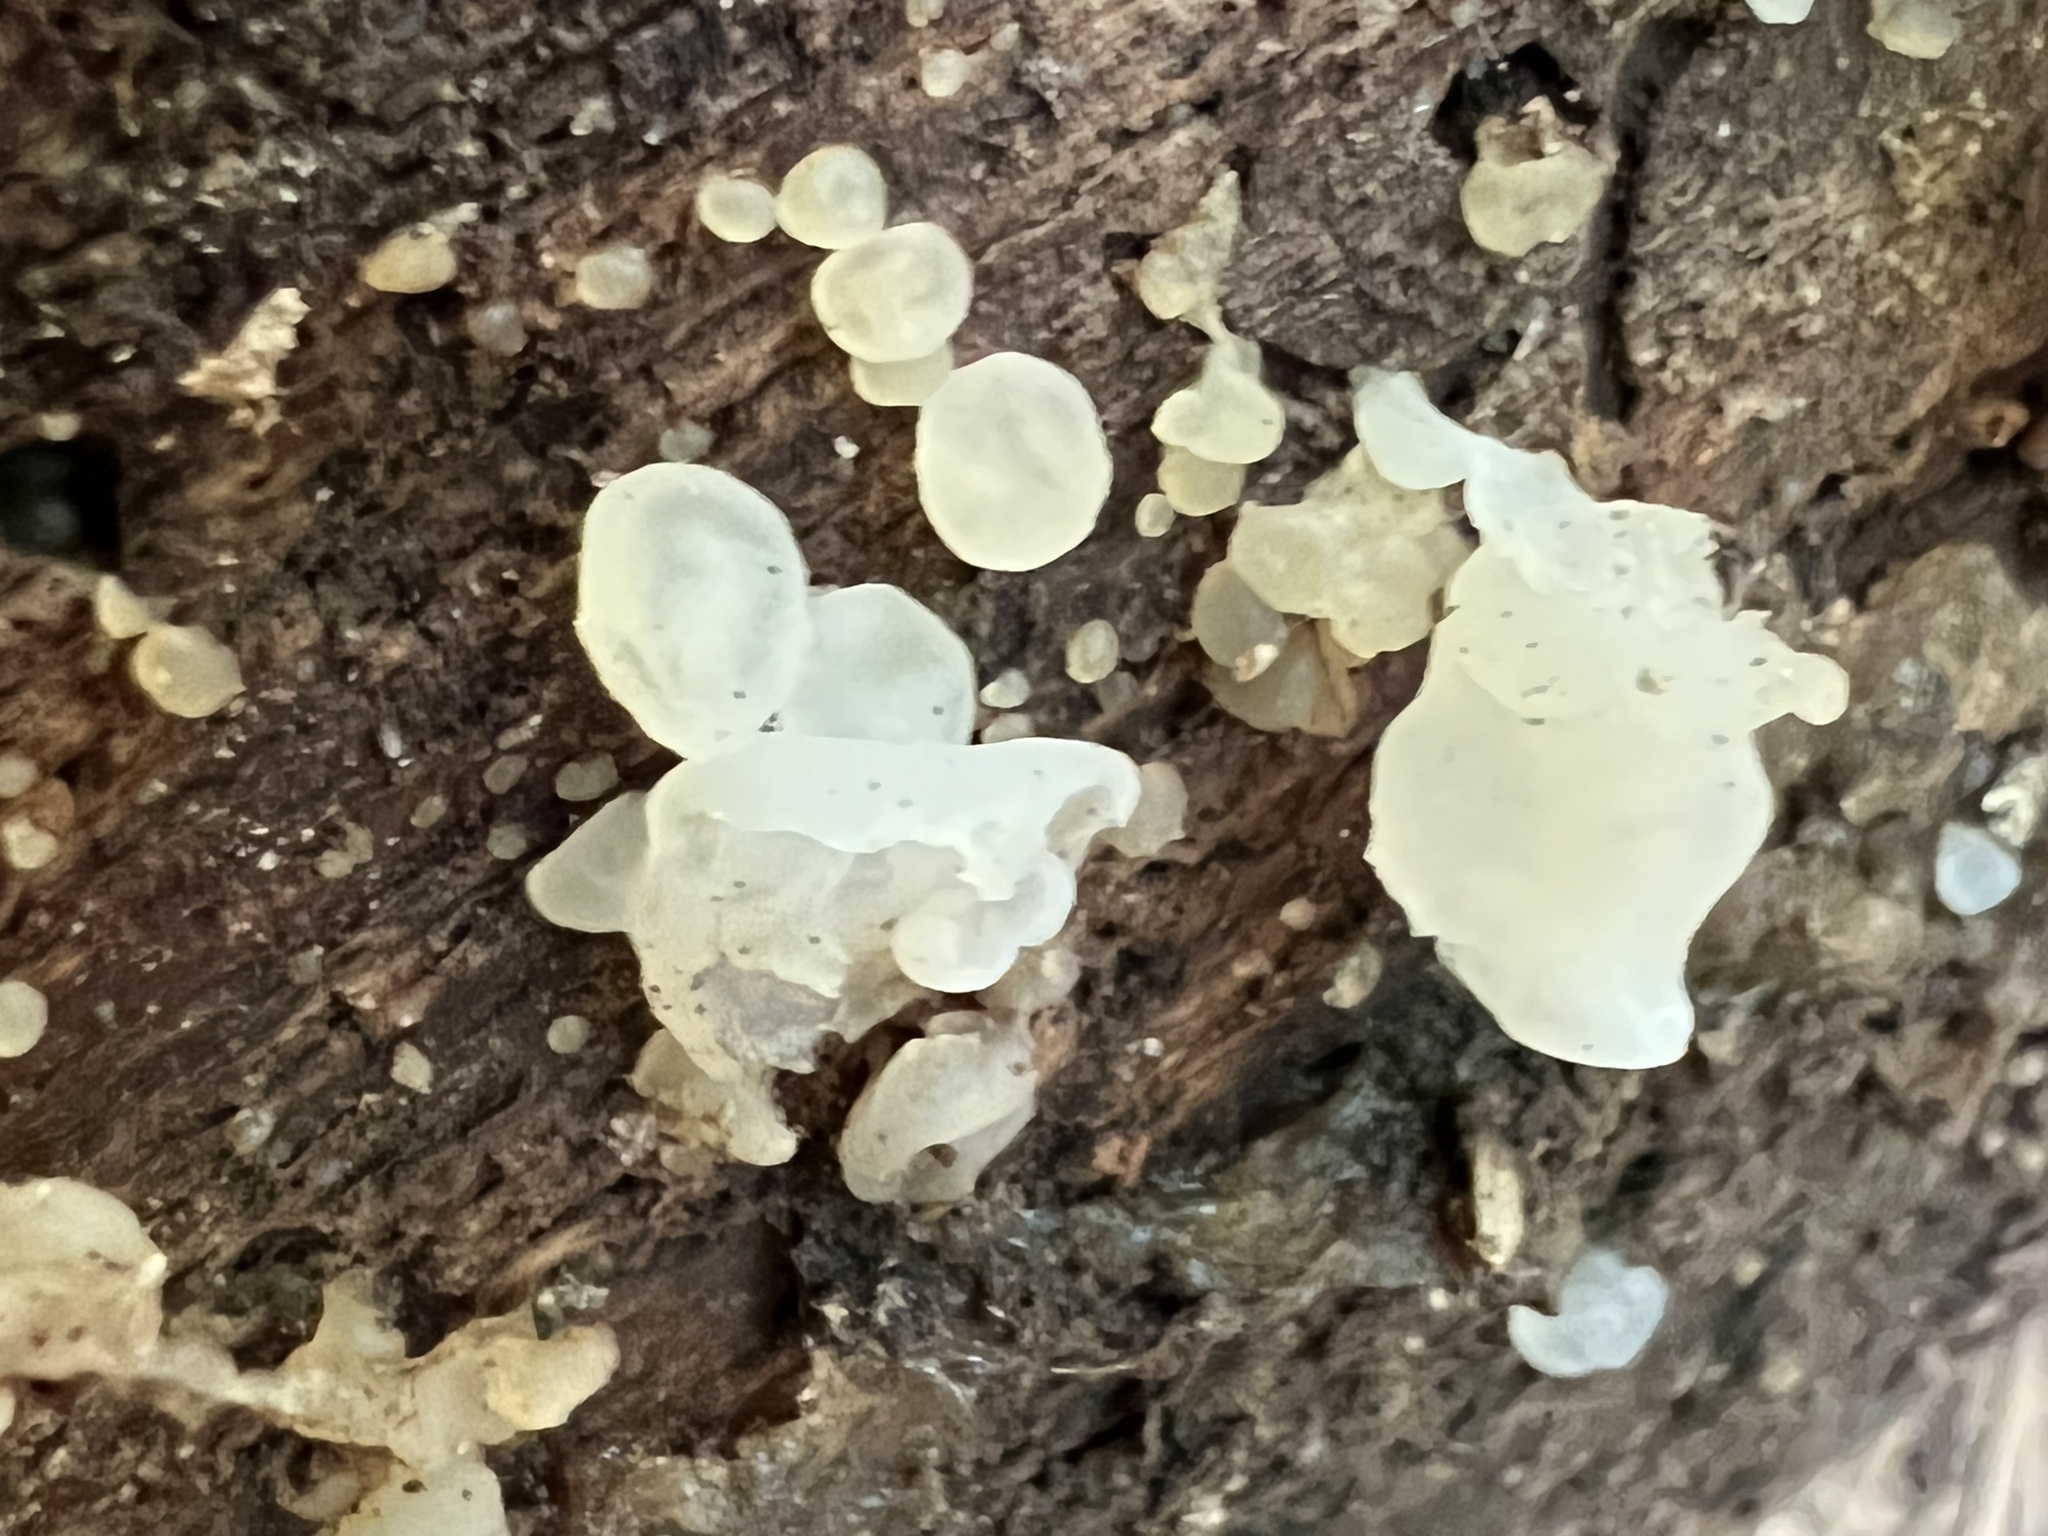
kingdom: Fungi
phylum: Basidiomycota
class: Agaricomycetes
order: Auriculariales
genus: Ductifera
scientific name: Ductifera pululahuana
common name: White jelly fungus
